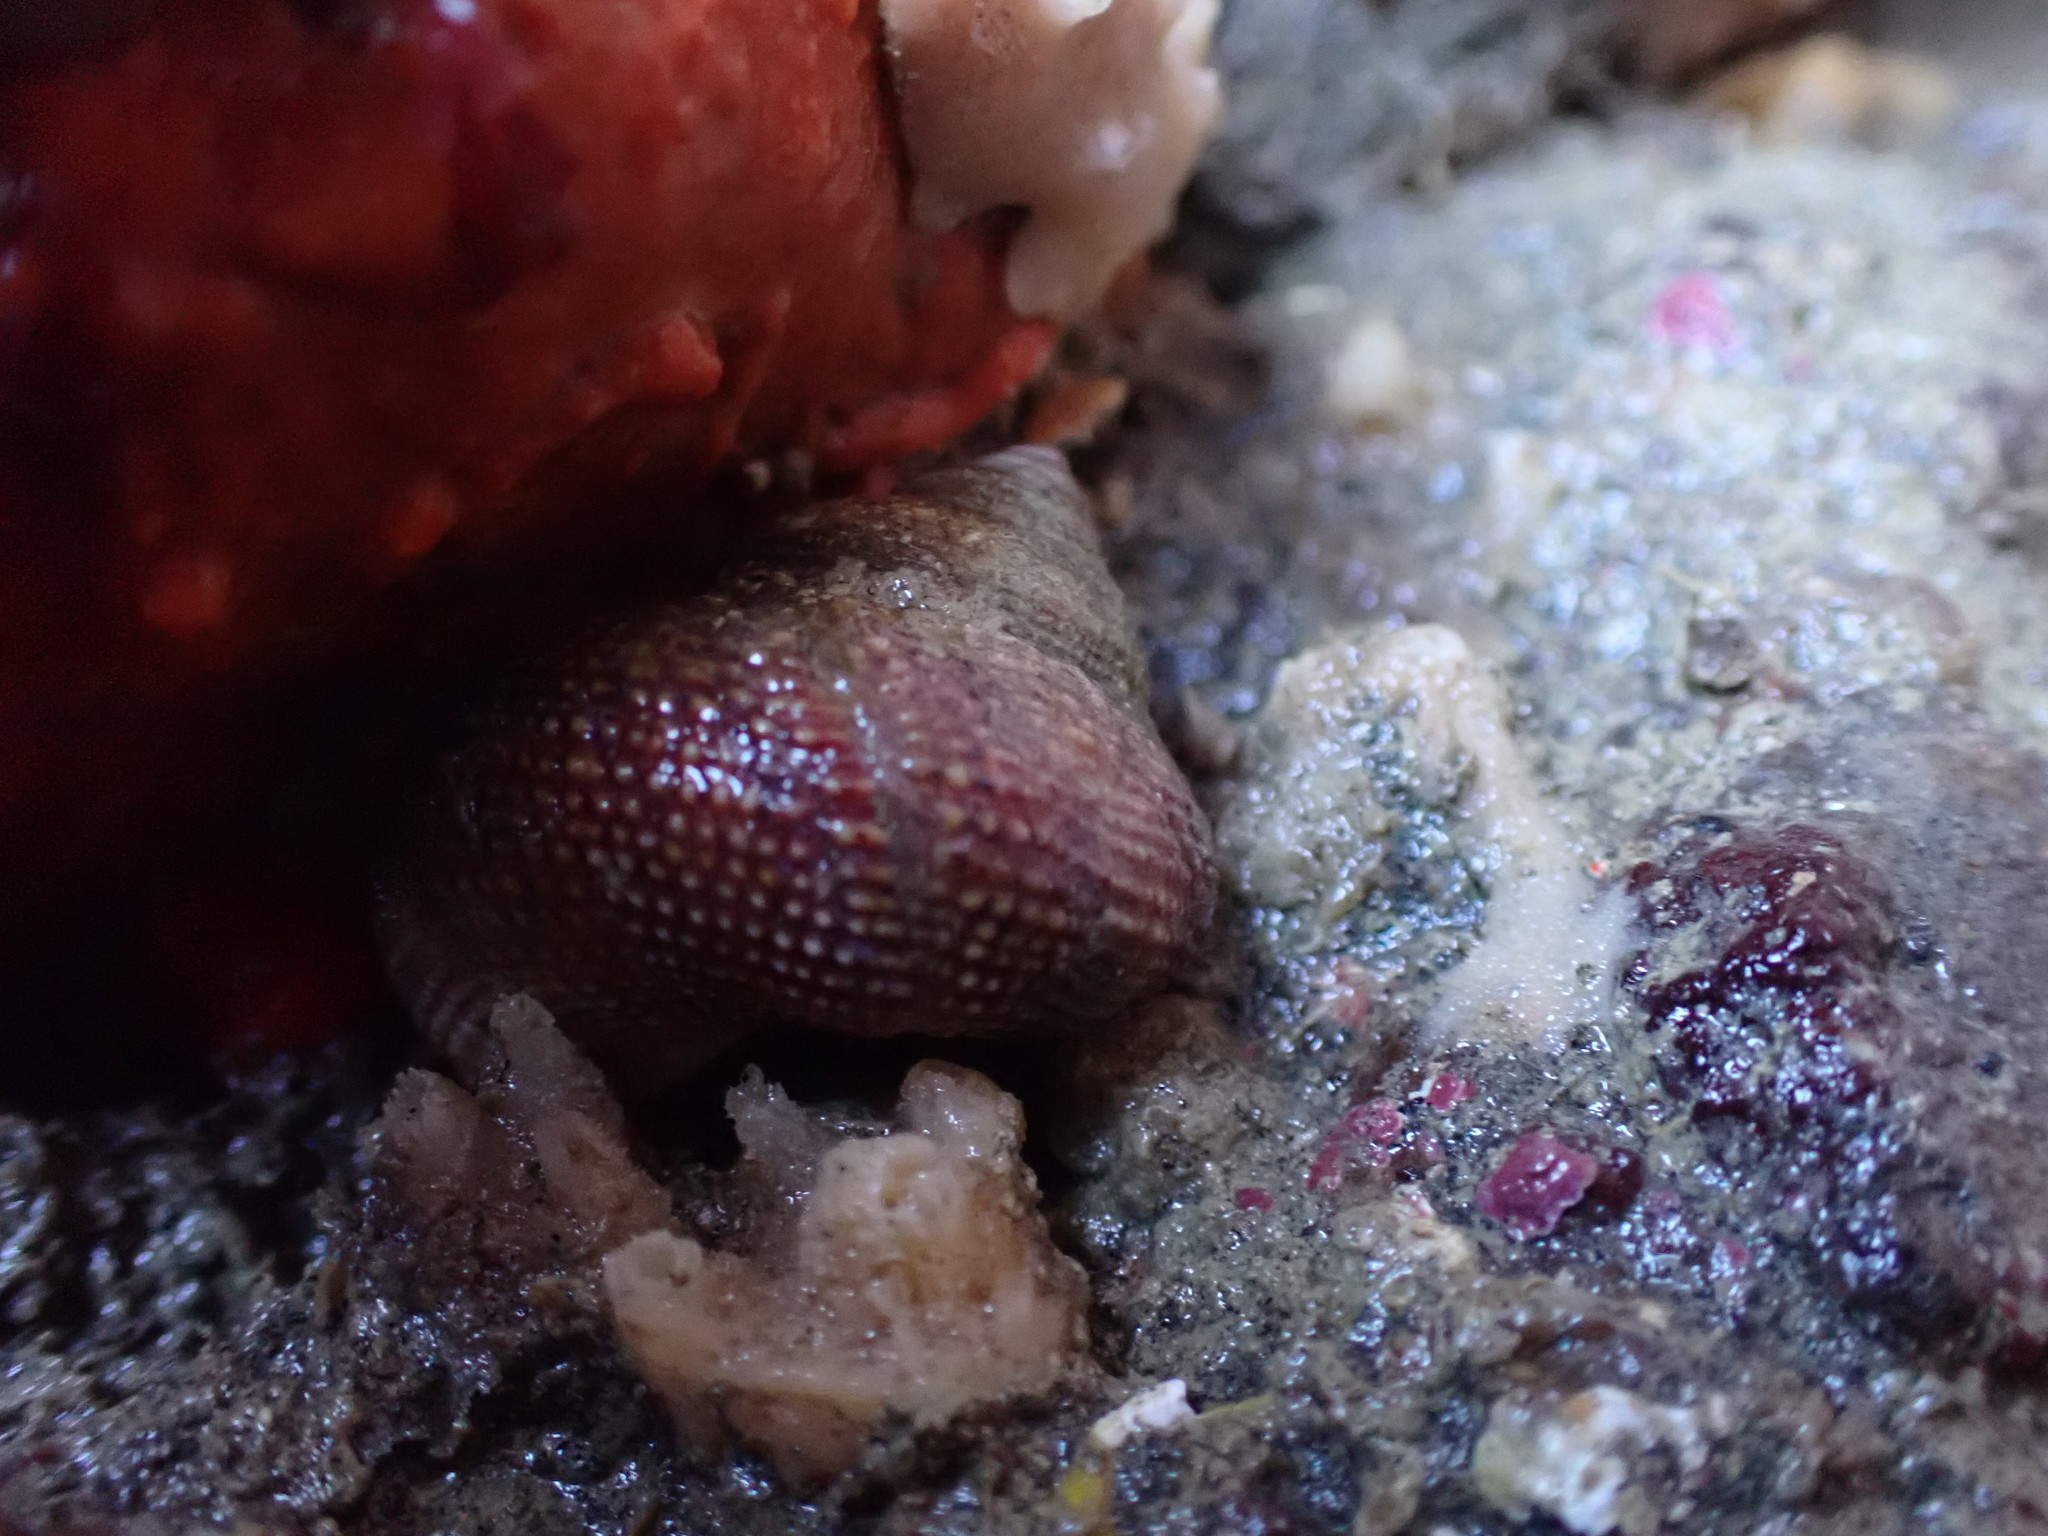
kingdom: Animalia
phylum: Mollusca
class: Gastropoda
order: Trochida
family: Calliostomatidae
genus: Maurea
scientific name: Maurea punctulata
